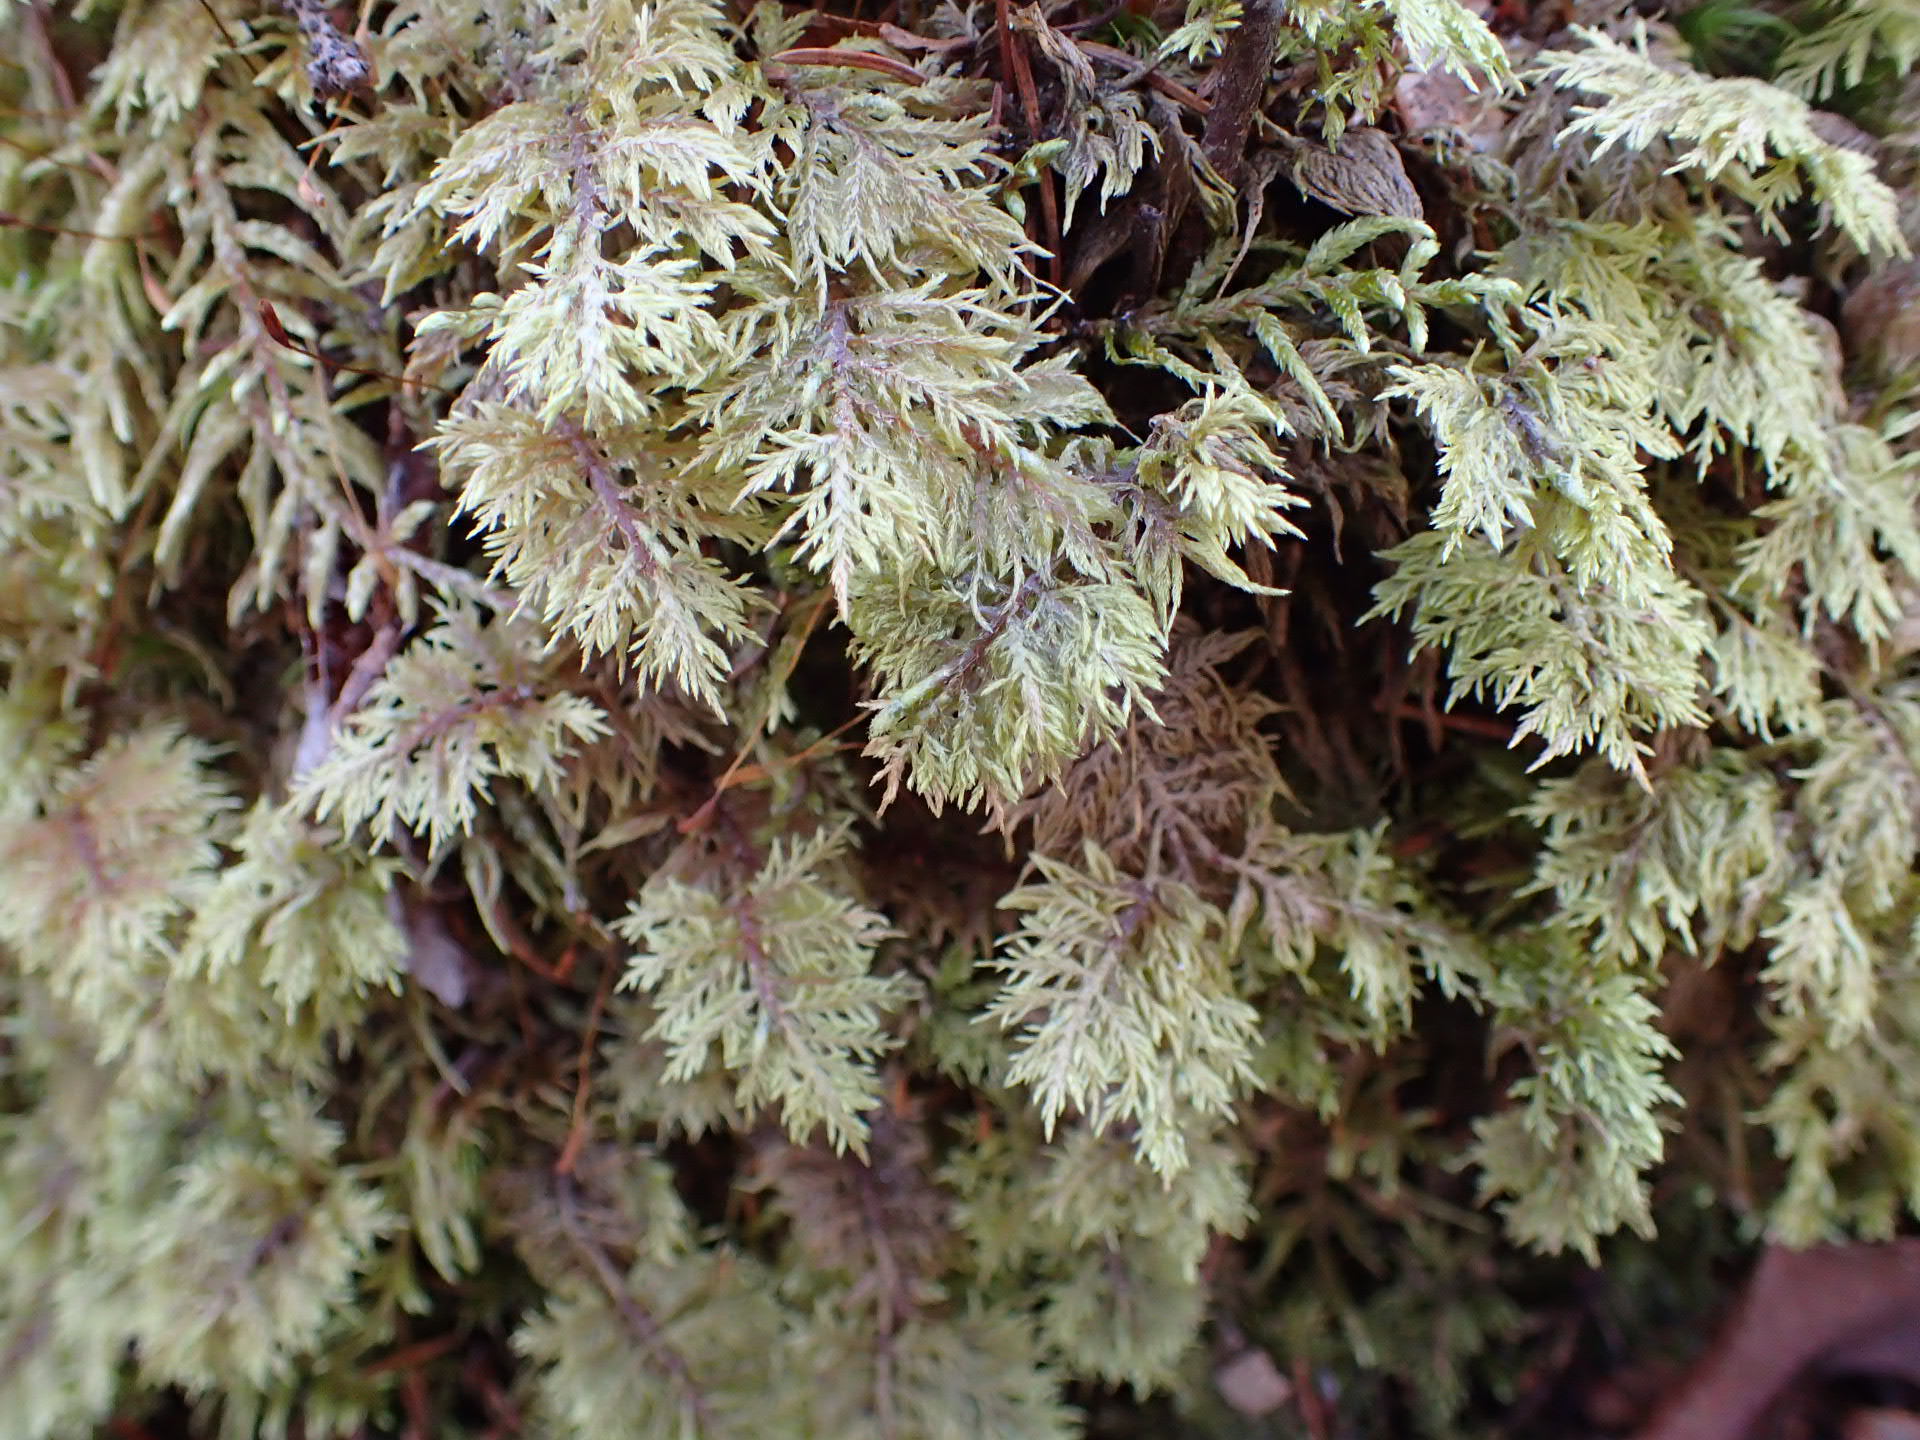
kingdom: Plantae
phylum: Bryophyta
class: Bryopsida
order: Hypnales
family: Hylocomiaceae
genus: Hylocomium
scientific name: Hylocomium splendens
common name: Stairstep moss
